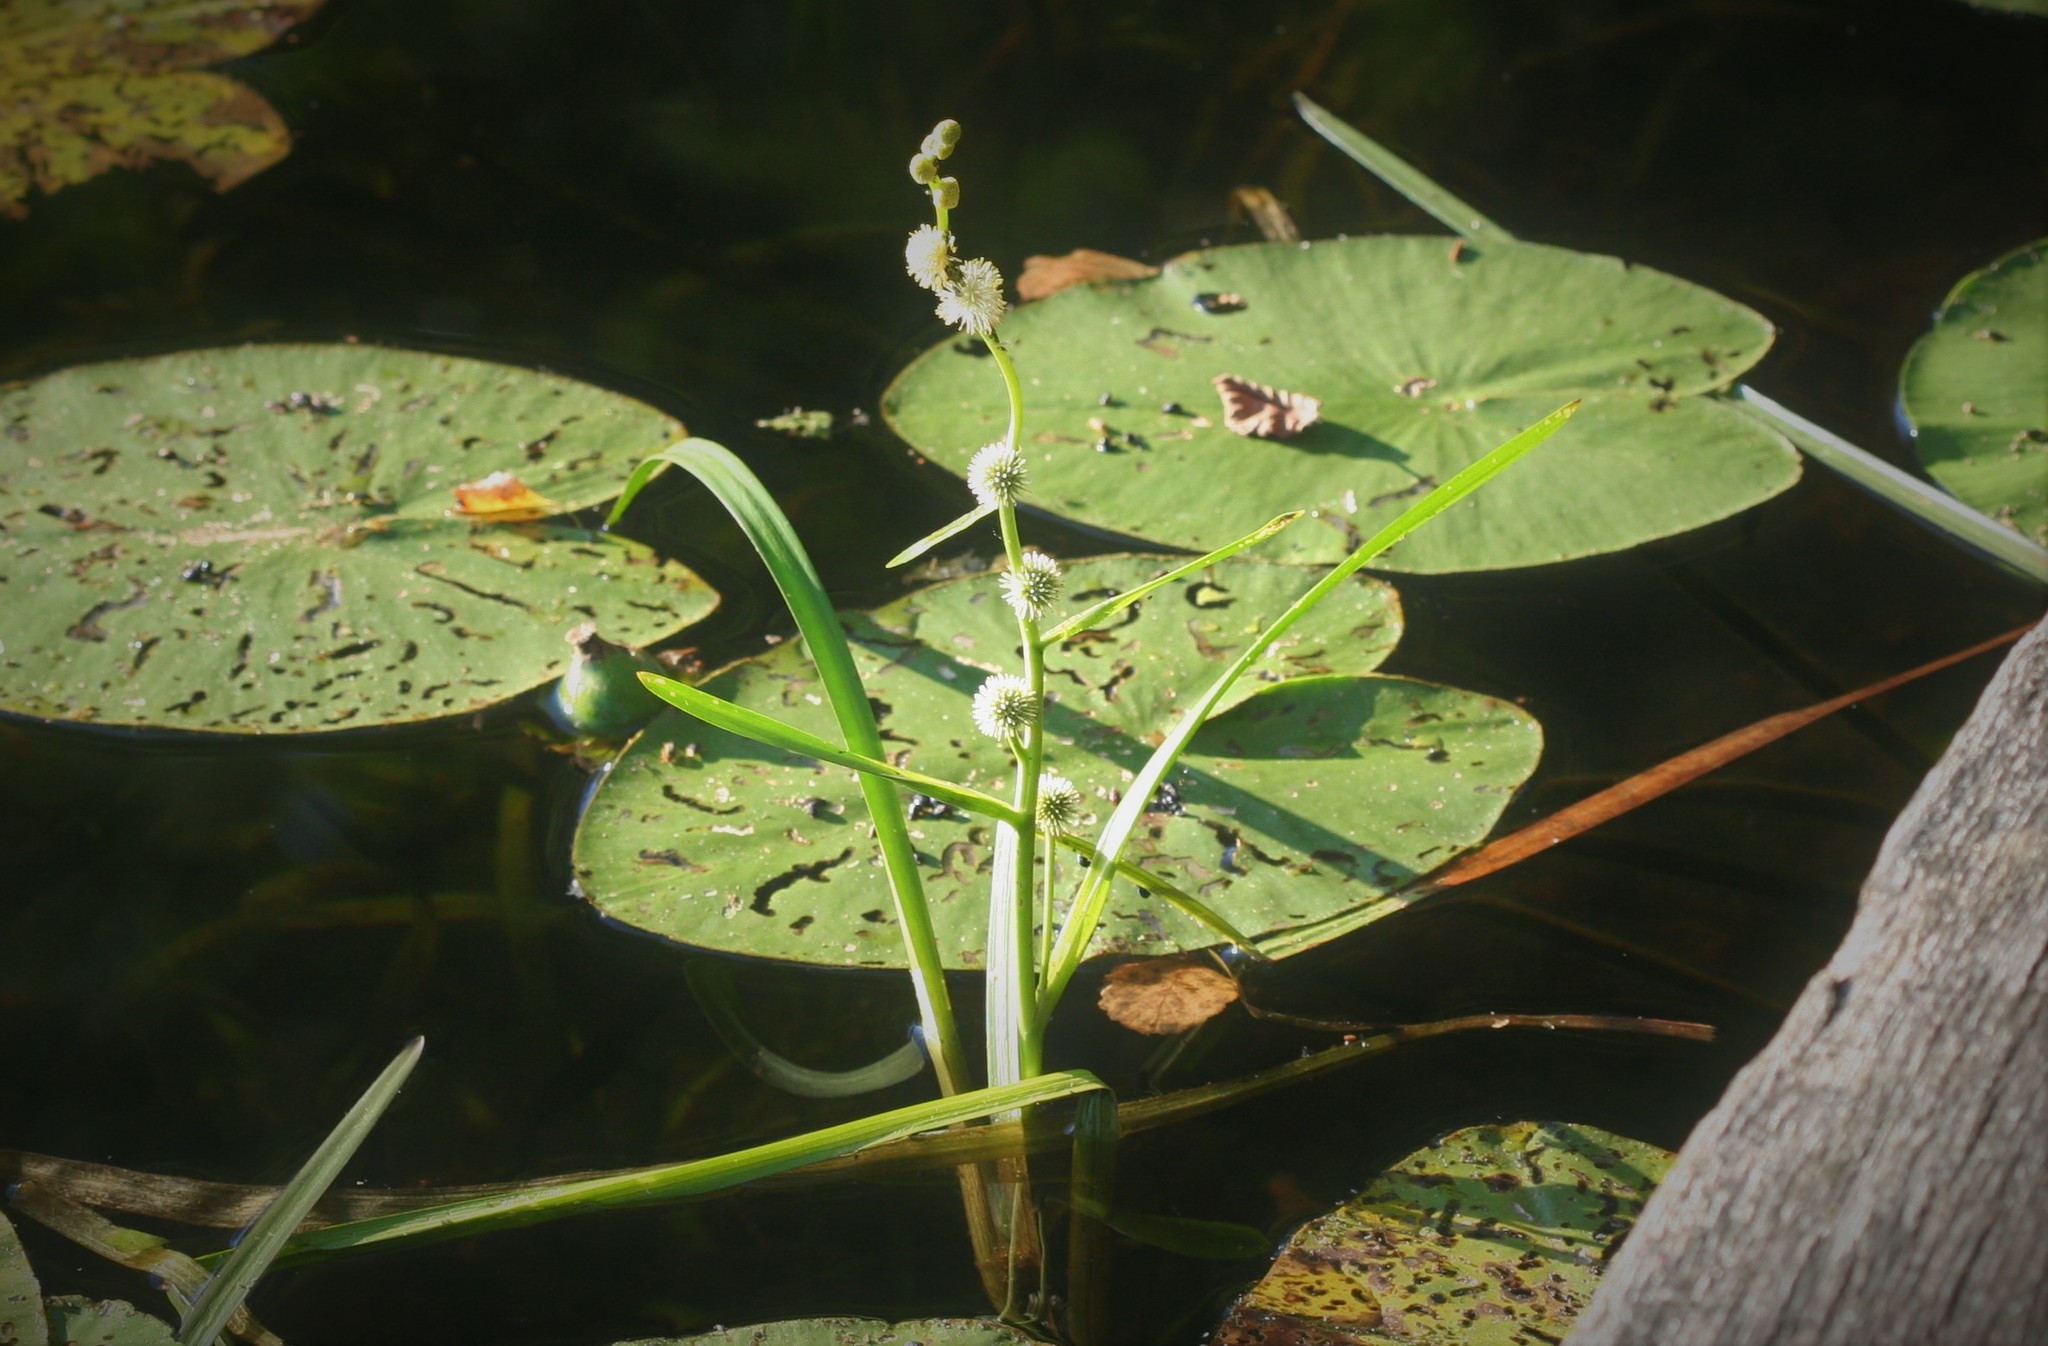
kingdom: Plantae
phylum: Tracheophyta
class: Liliopsida
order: Poales
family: Typhaceae
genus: Sparganium
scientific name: Sparganium emersum
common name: Unbranched bur-reed
